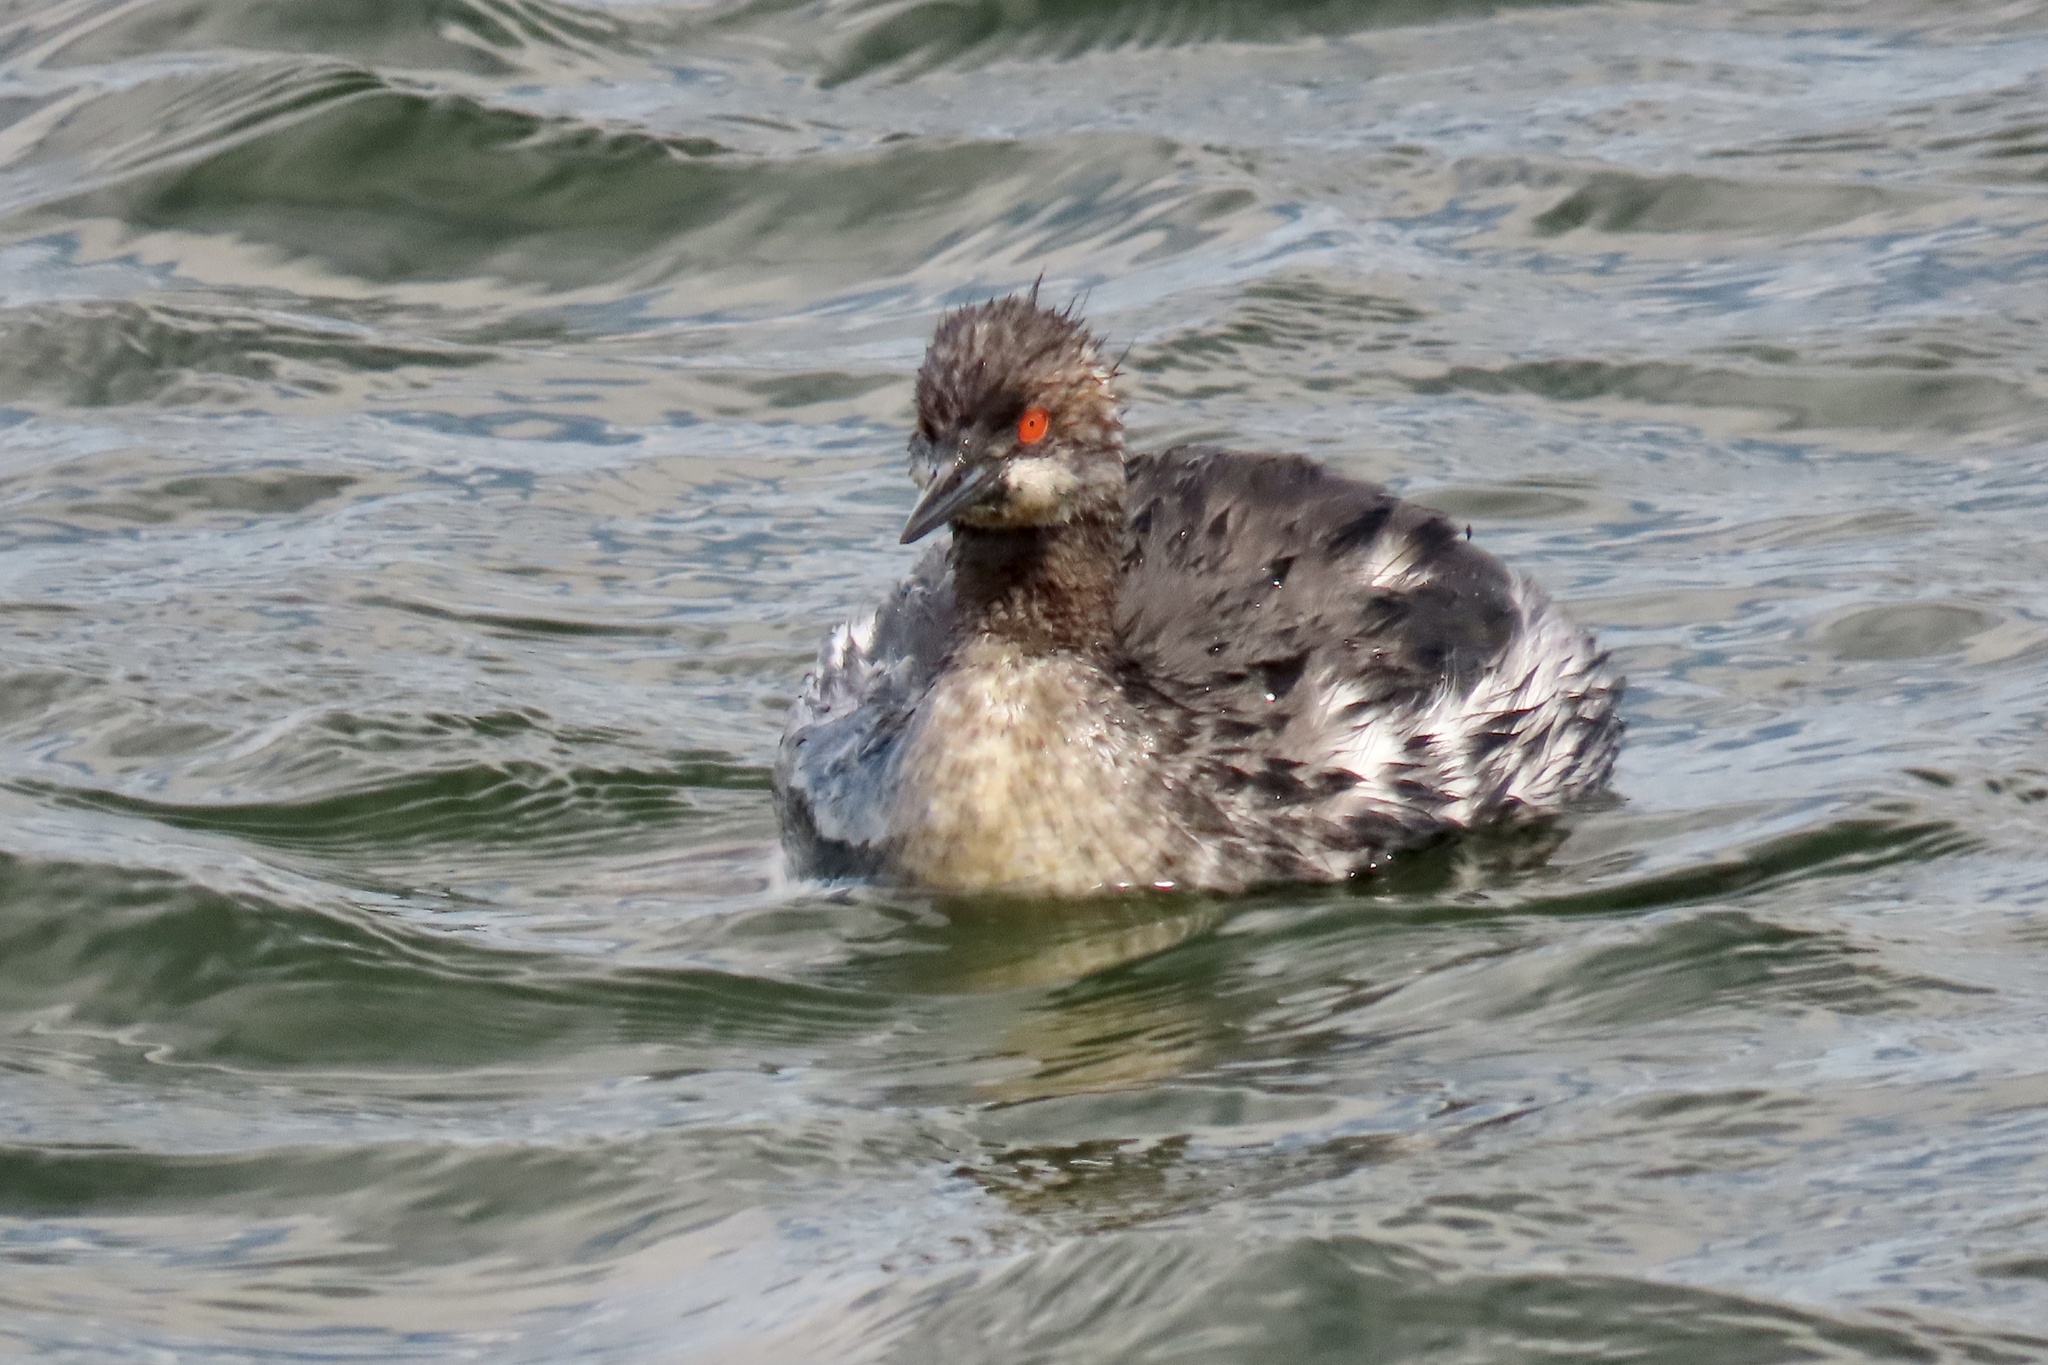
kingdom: Animalia
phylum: Chordata
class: Aves
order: Podicipediformes
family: Podicipedidae
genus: Podiceps
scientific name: Podiceps nigricollis
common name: Black-necked grebe
